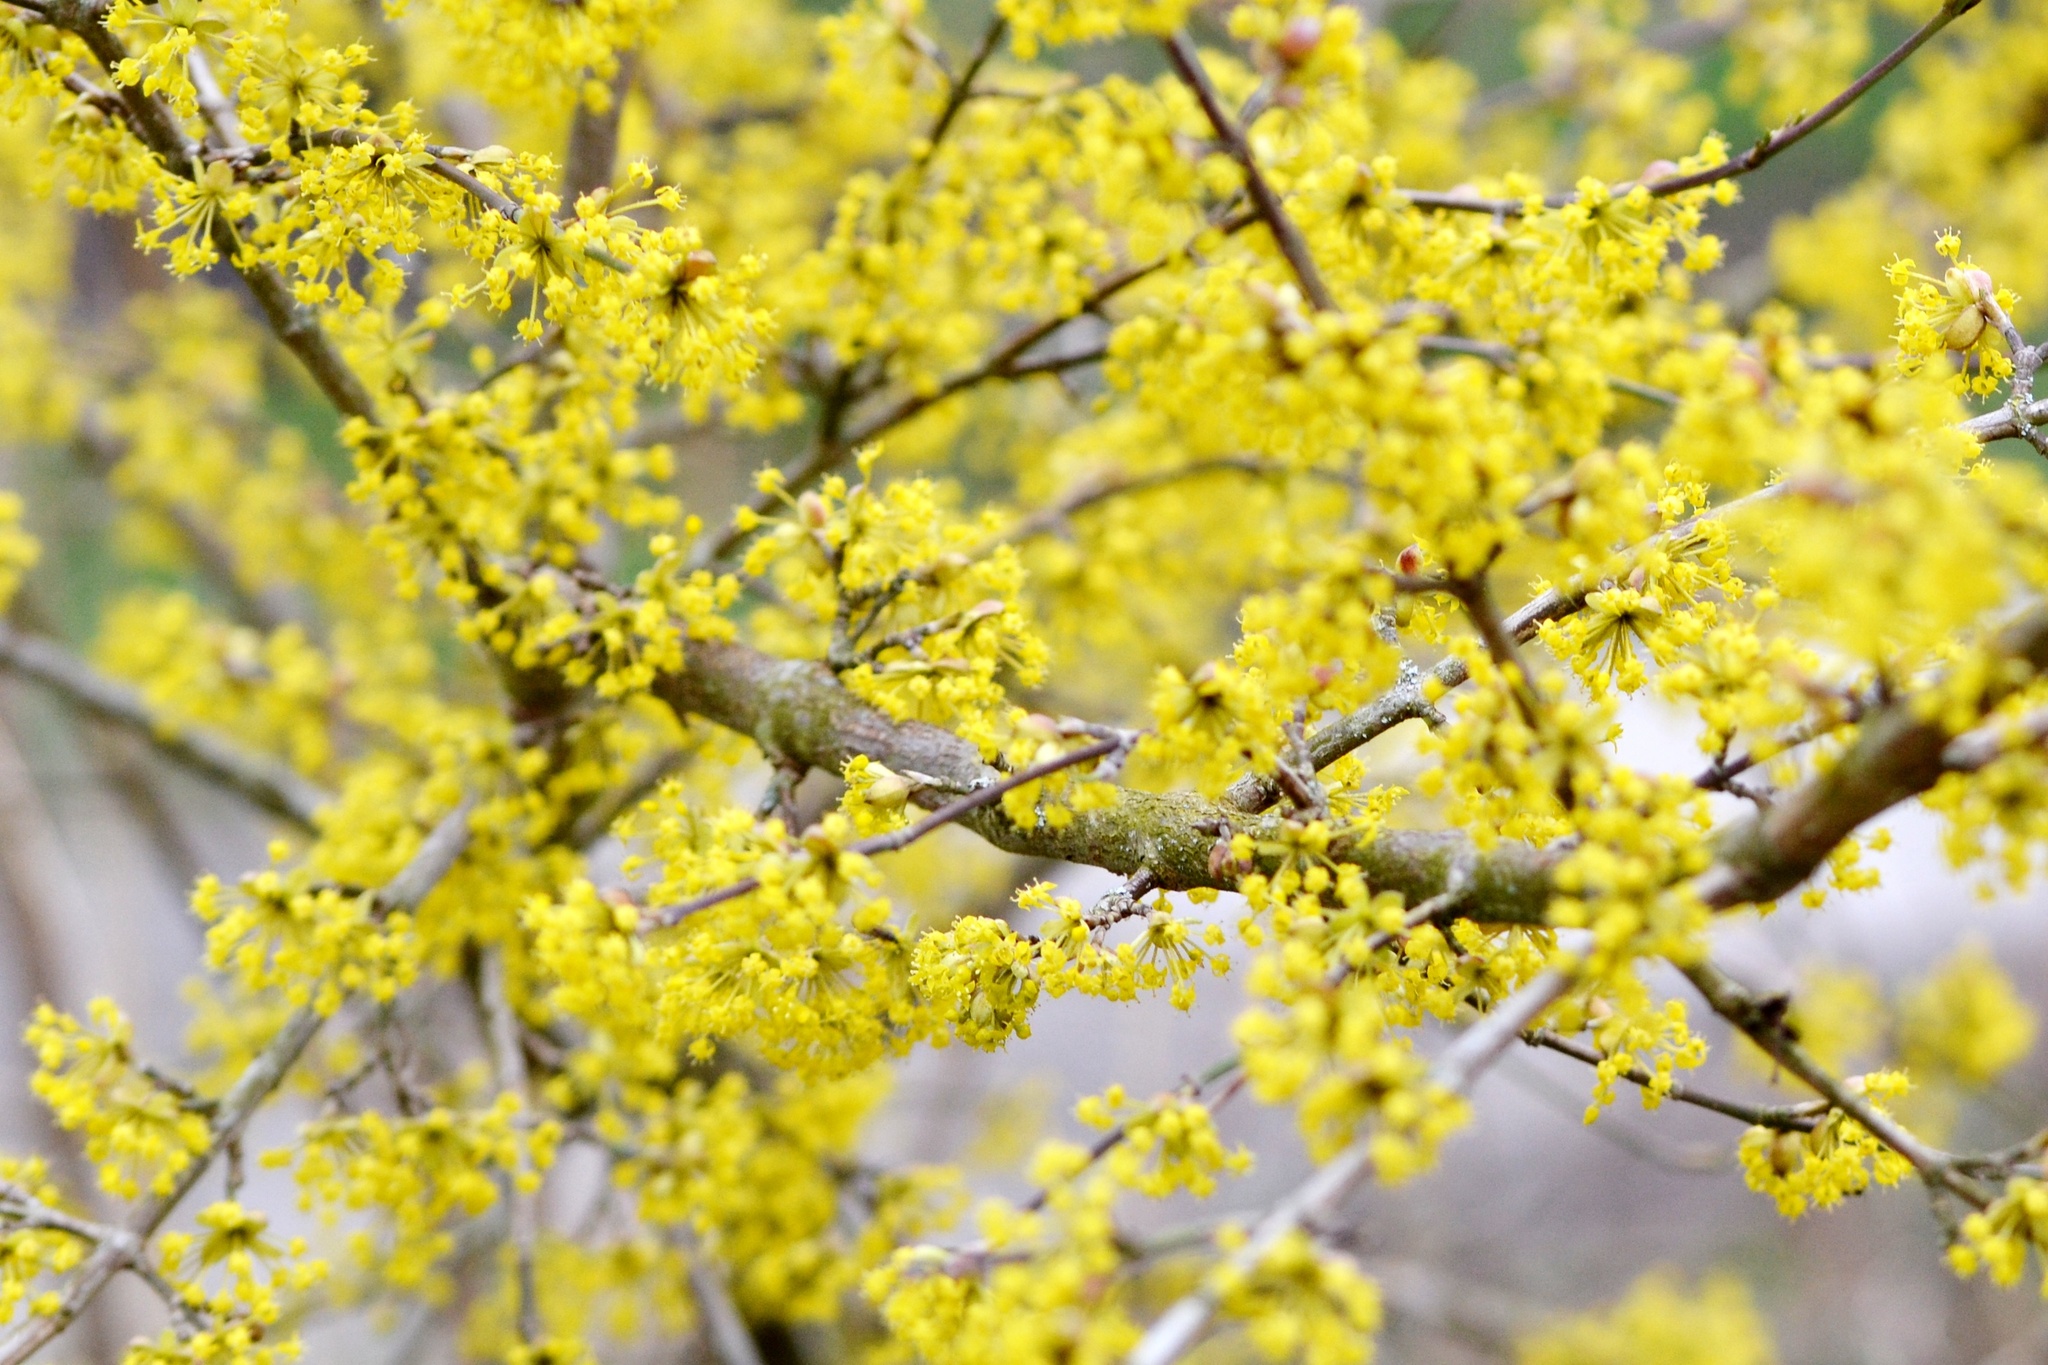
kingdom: Plantae
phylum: Tracheophyta
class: Magnoliopsida
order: Cornales
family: Cornaceae
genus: Cornus
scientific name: Cornus mas
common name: Cornelian-cherry
